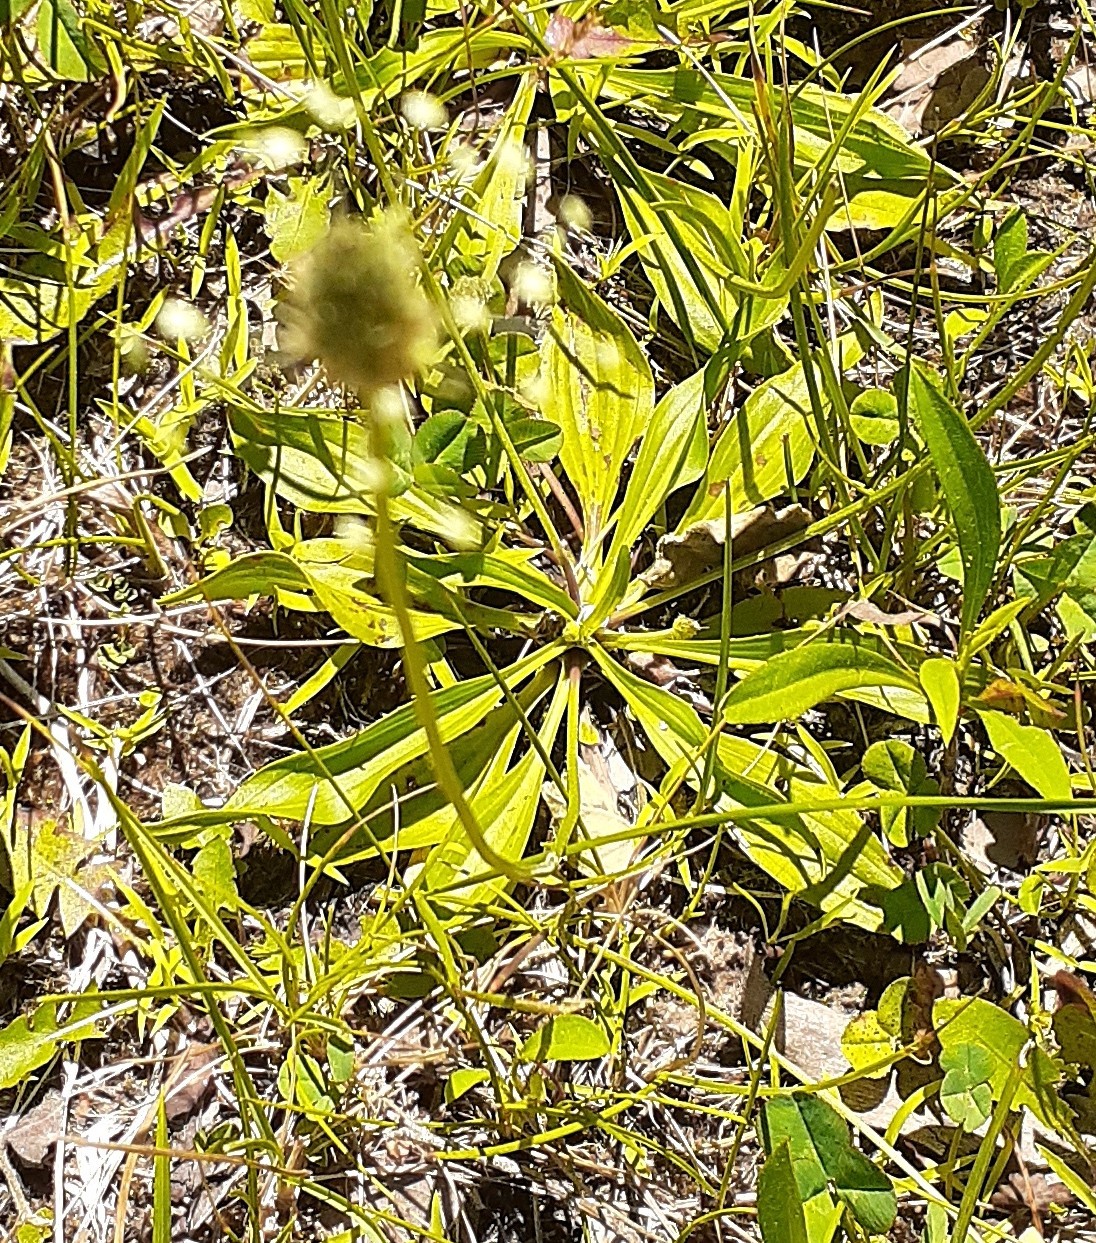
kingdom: Plantae
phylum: Tracheophyta
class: Magnoliopsida
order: Lamiales
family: Plantaginaceae
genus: Plantago
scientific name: Plantago lanceolata
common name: Ribwort plantain
